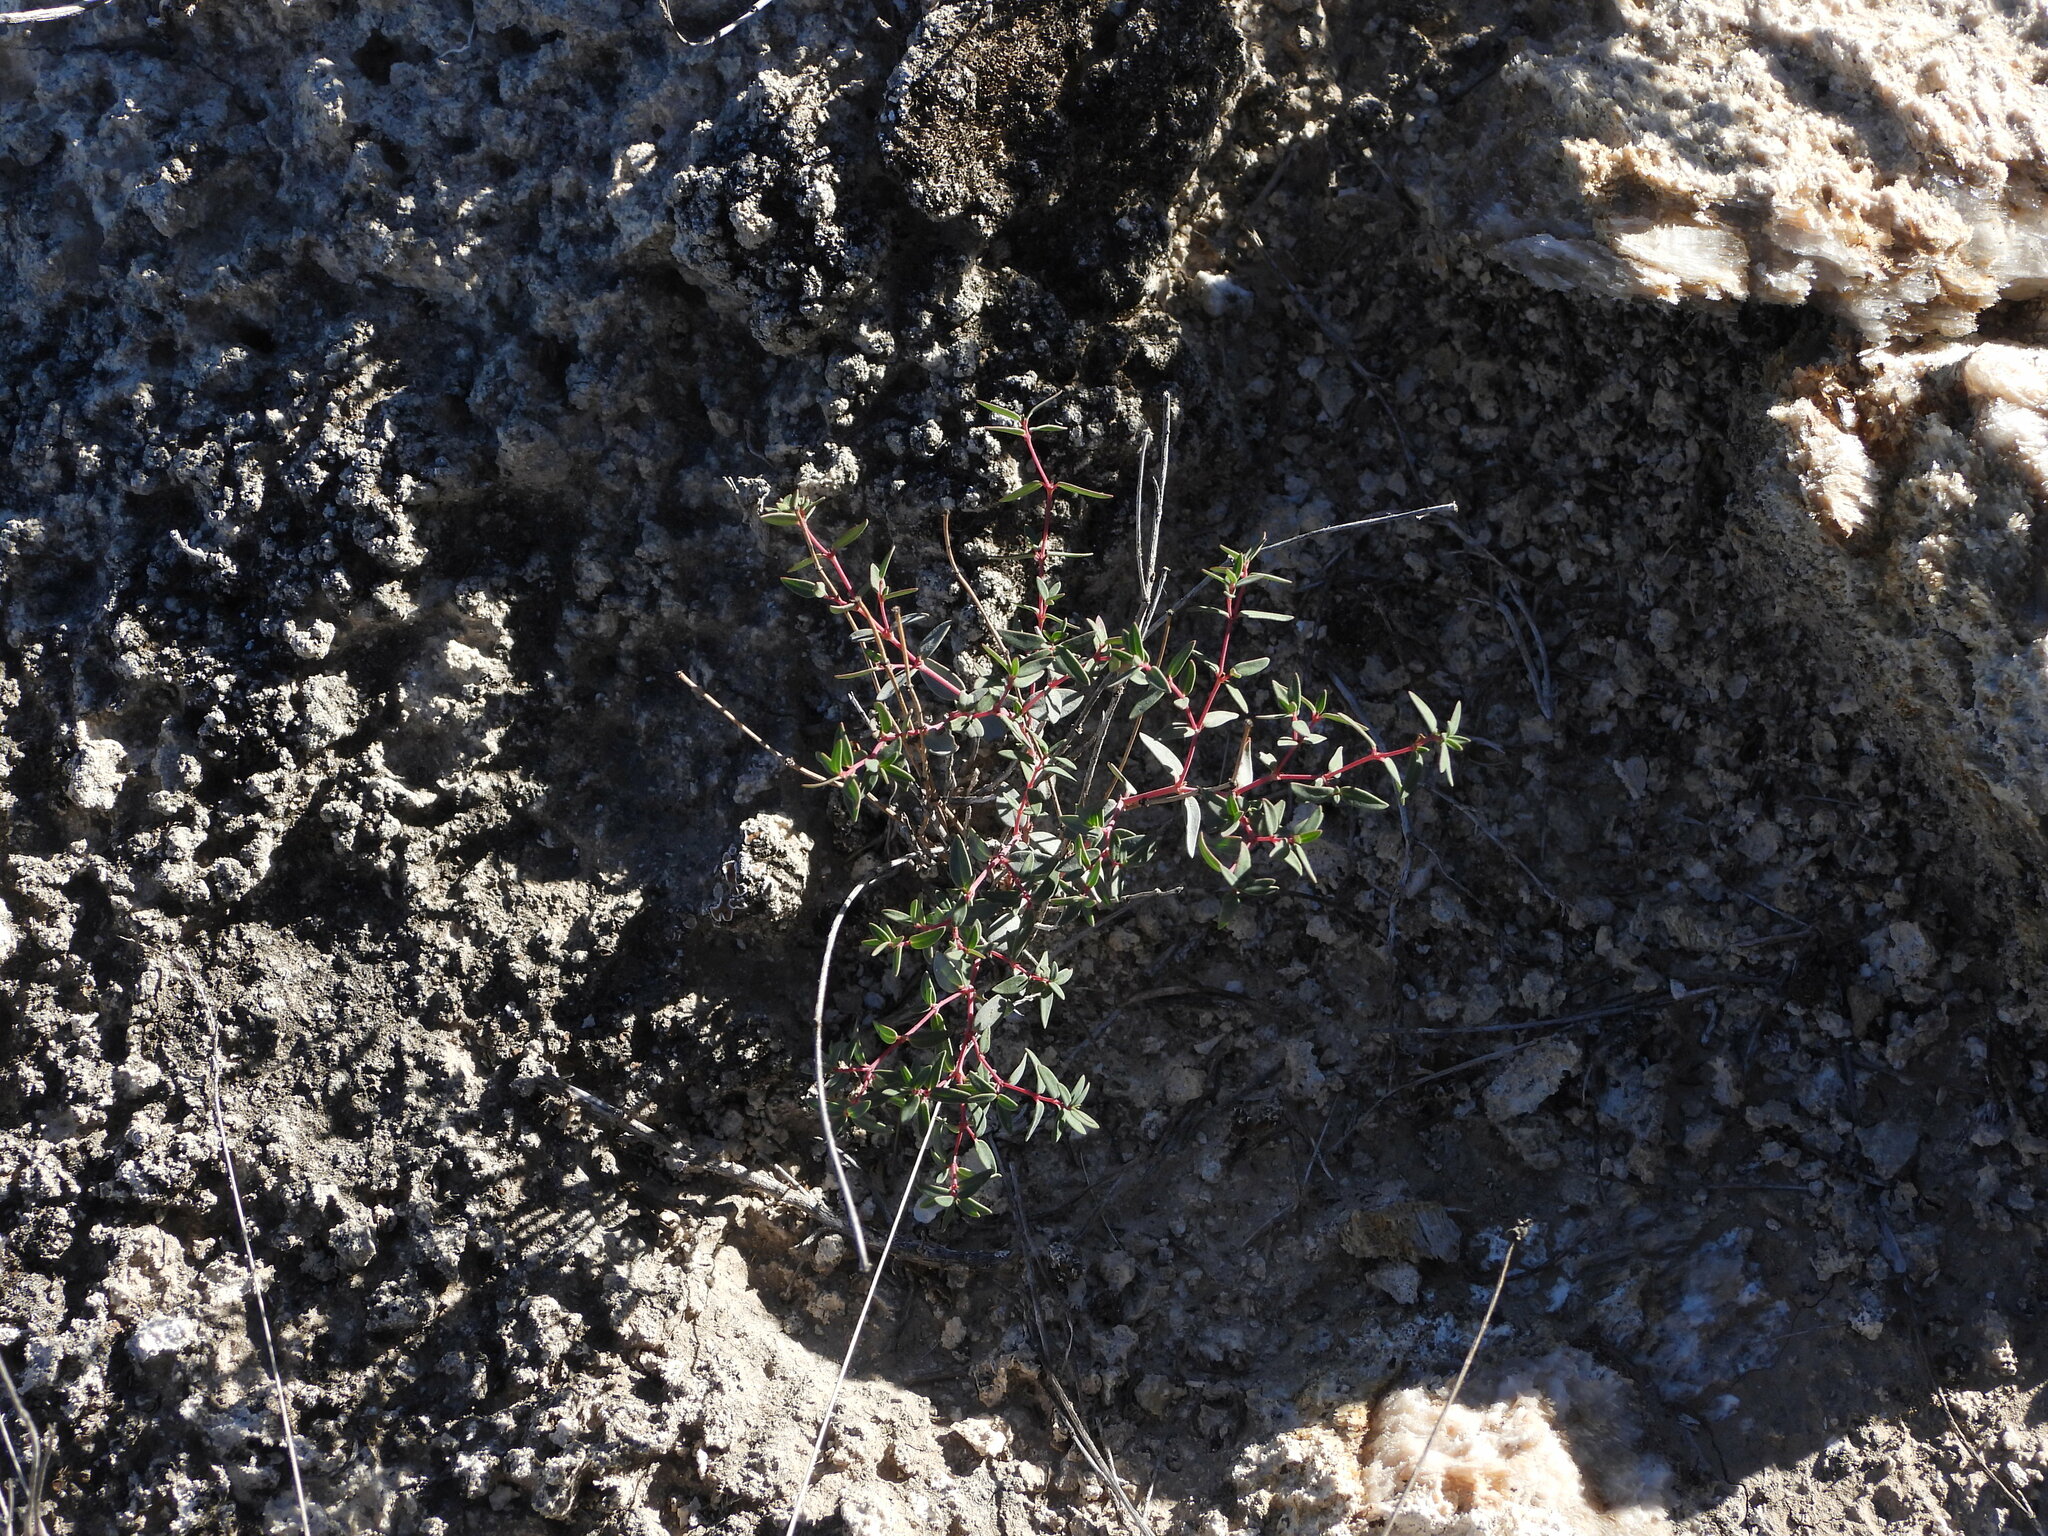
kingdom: Plantae
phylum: Tracheophyta
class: Magnoliopsida
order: Malpighiales
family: Euphorbiaceae
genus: Euphorbia
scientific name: Euphorbia chaetocalyx
